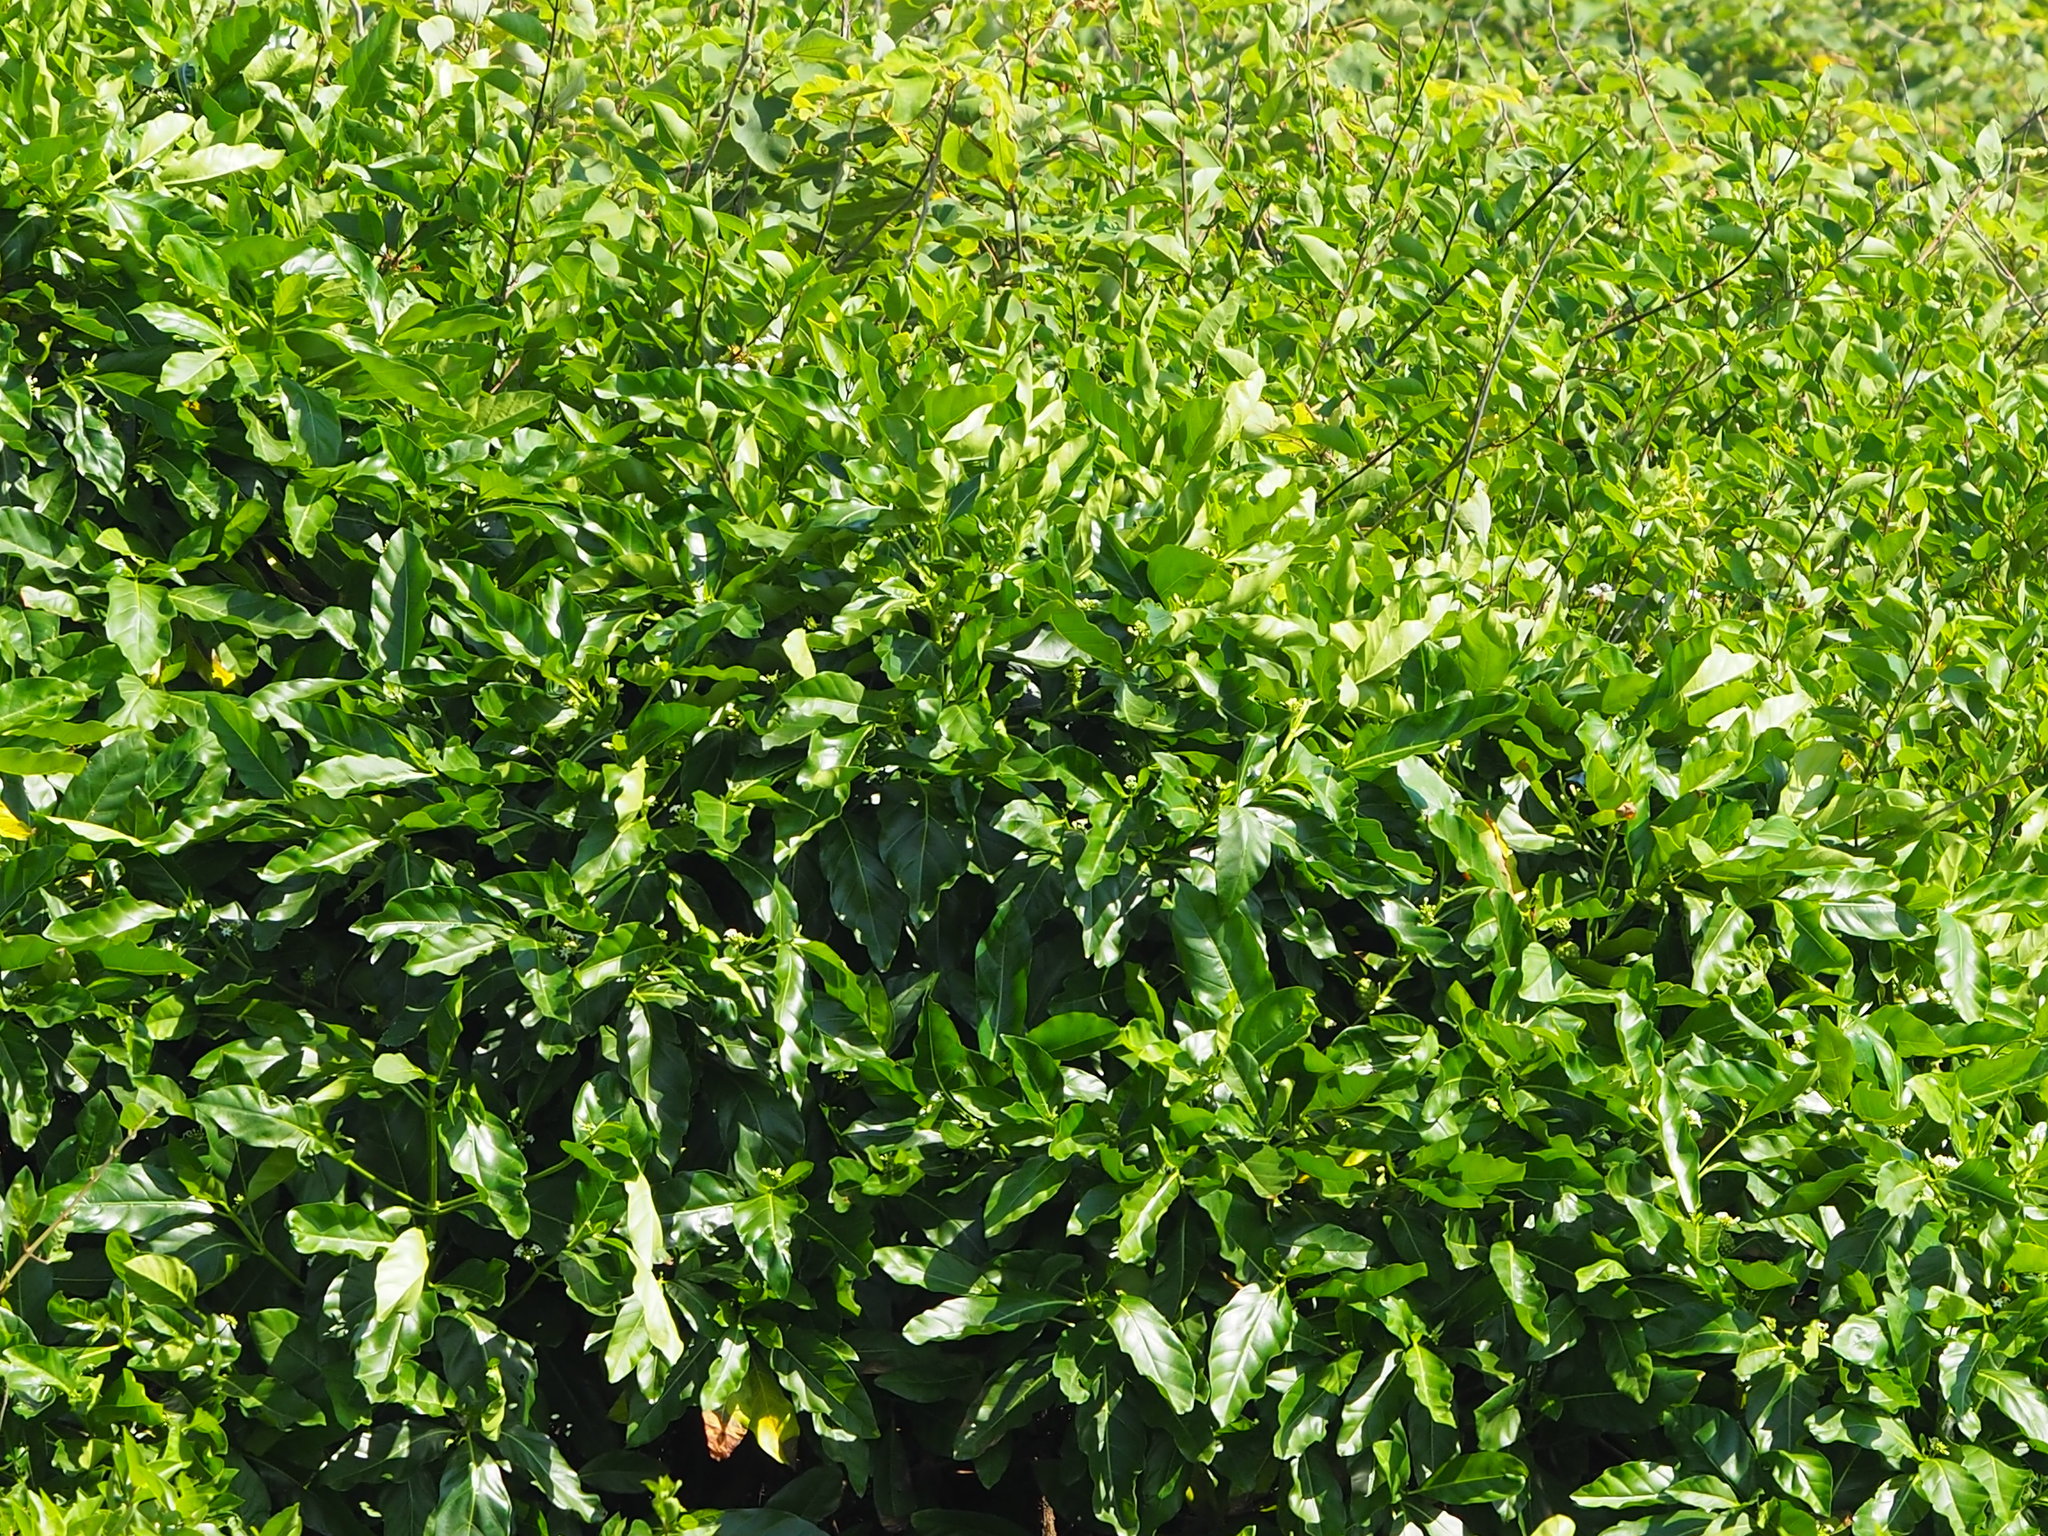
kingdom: Plantae
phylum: Tracheophyta
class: Magnoliopsida
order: Gentianales
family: Rubiaceae
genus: Morinda
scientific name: Morinda citrifolia
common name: Indian-mulberry
